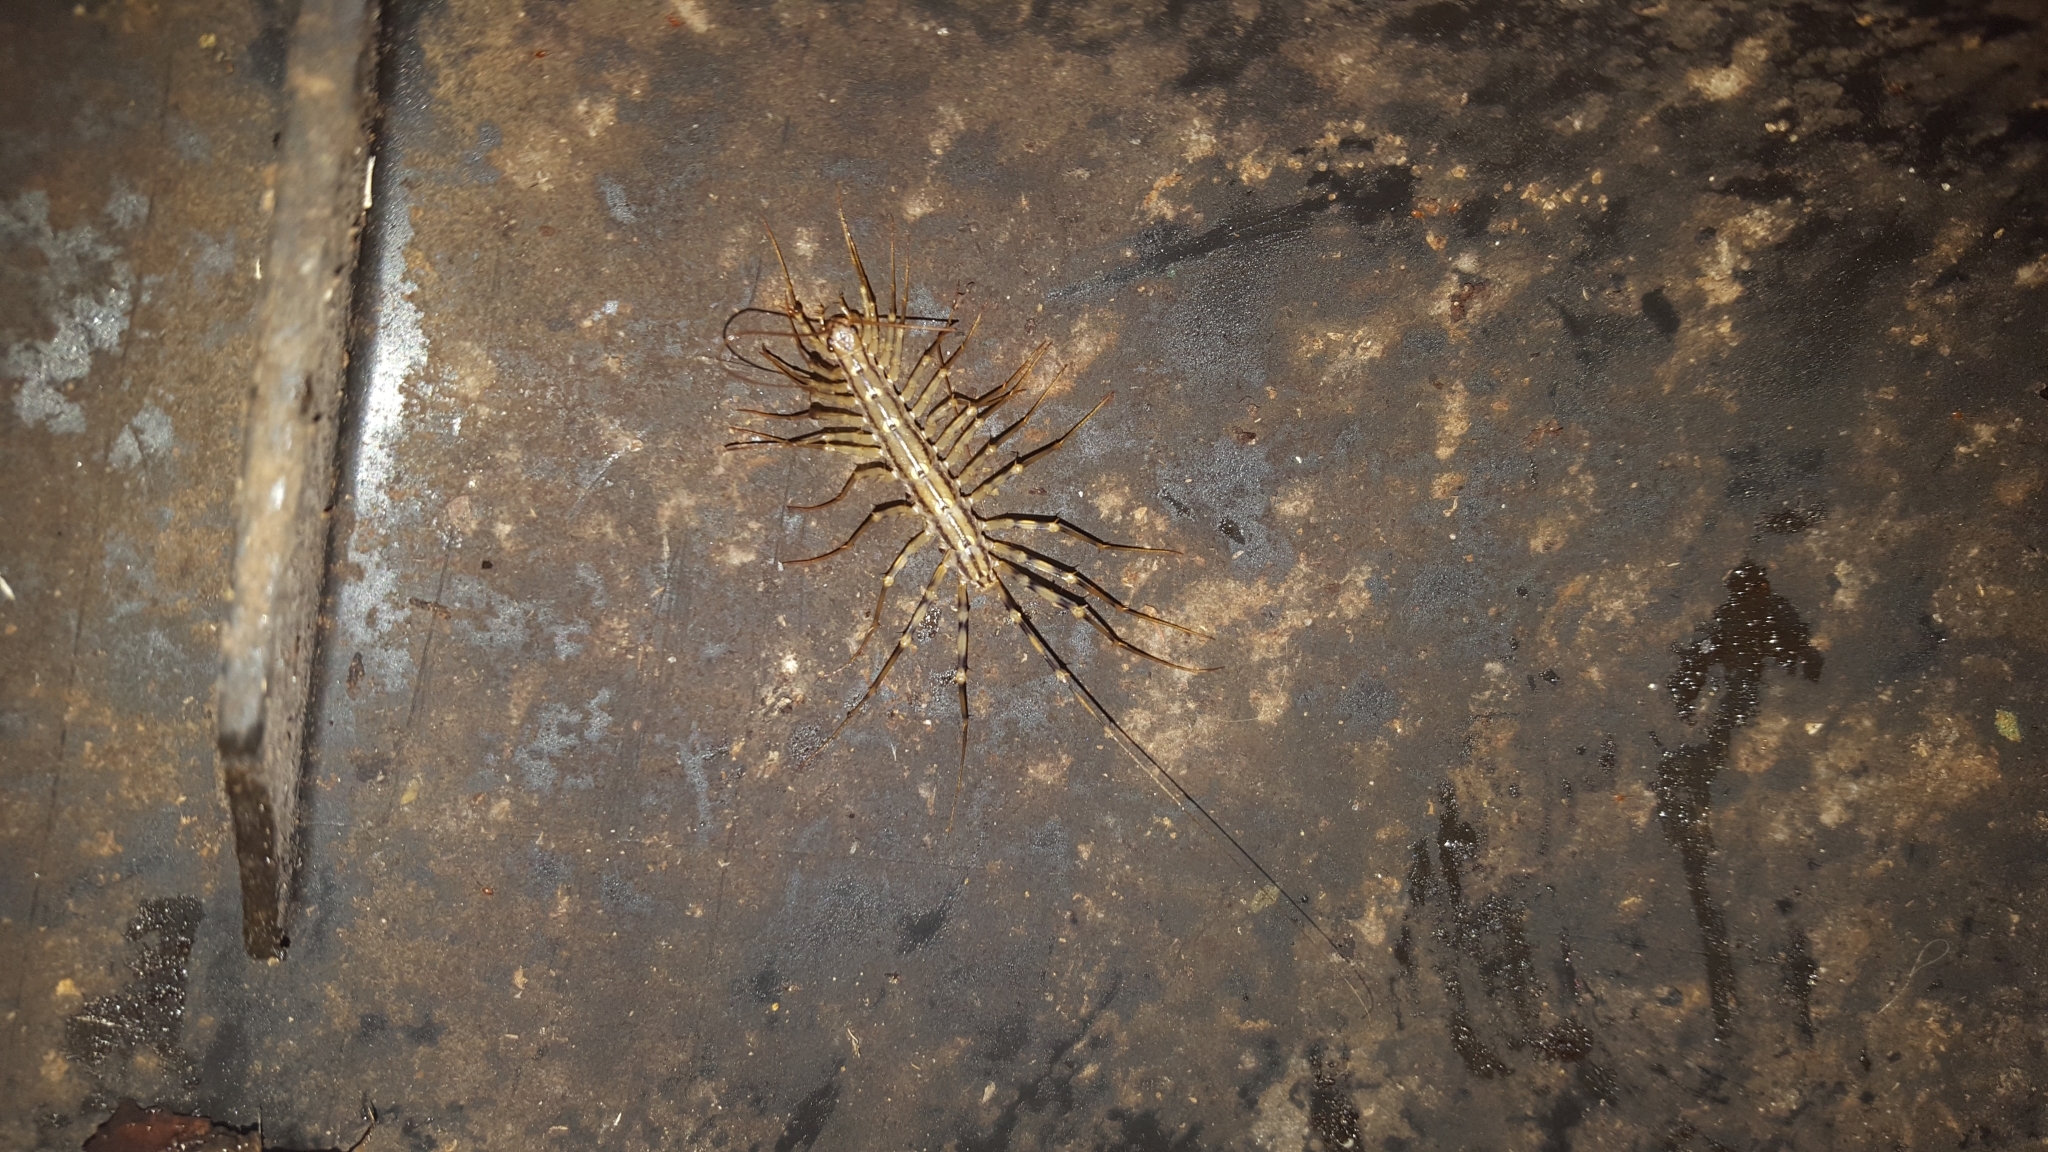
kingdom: Animalia
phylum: Arthropoda
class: Chilopoda
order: Scutigeromorpha
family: Scutigeridae
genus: Scutigera
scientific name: Scutigera coleoptrata
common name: House centipede
